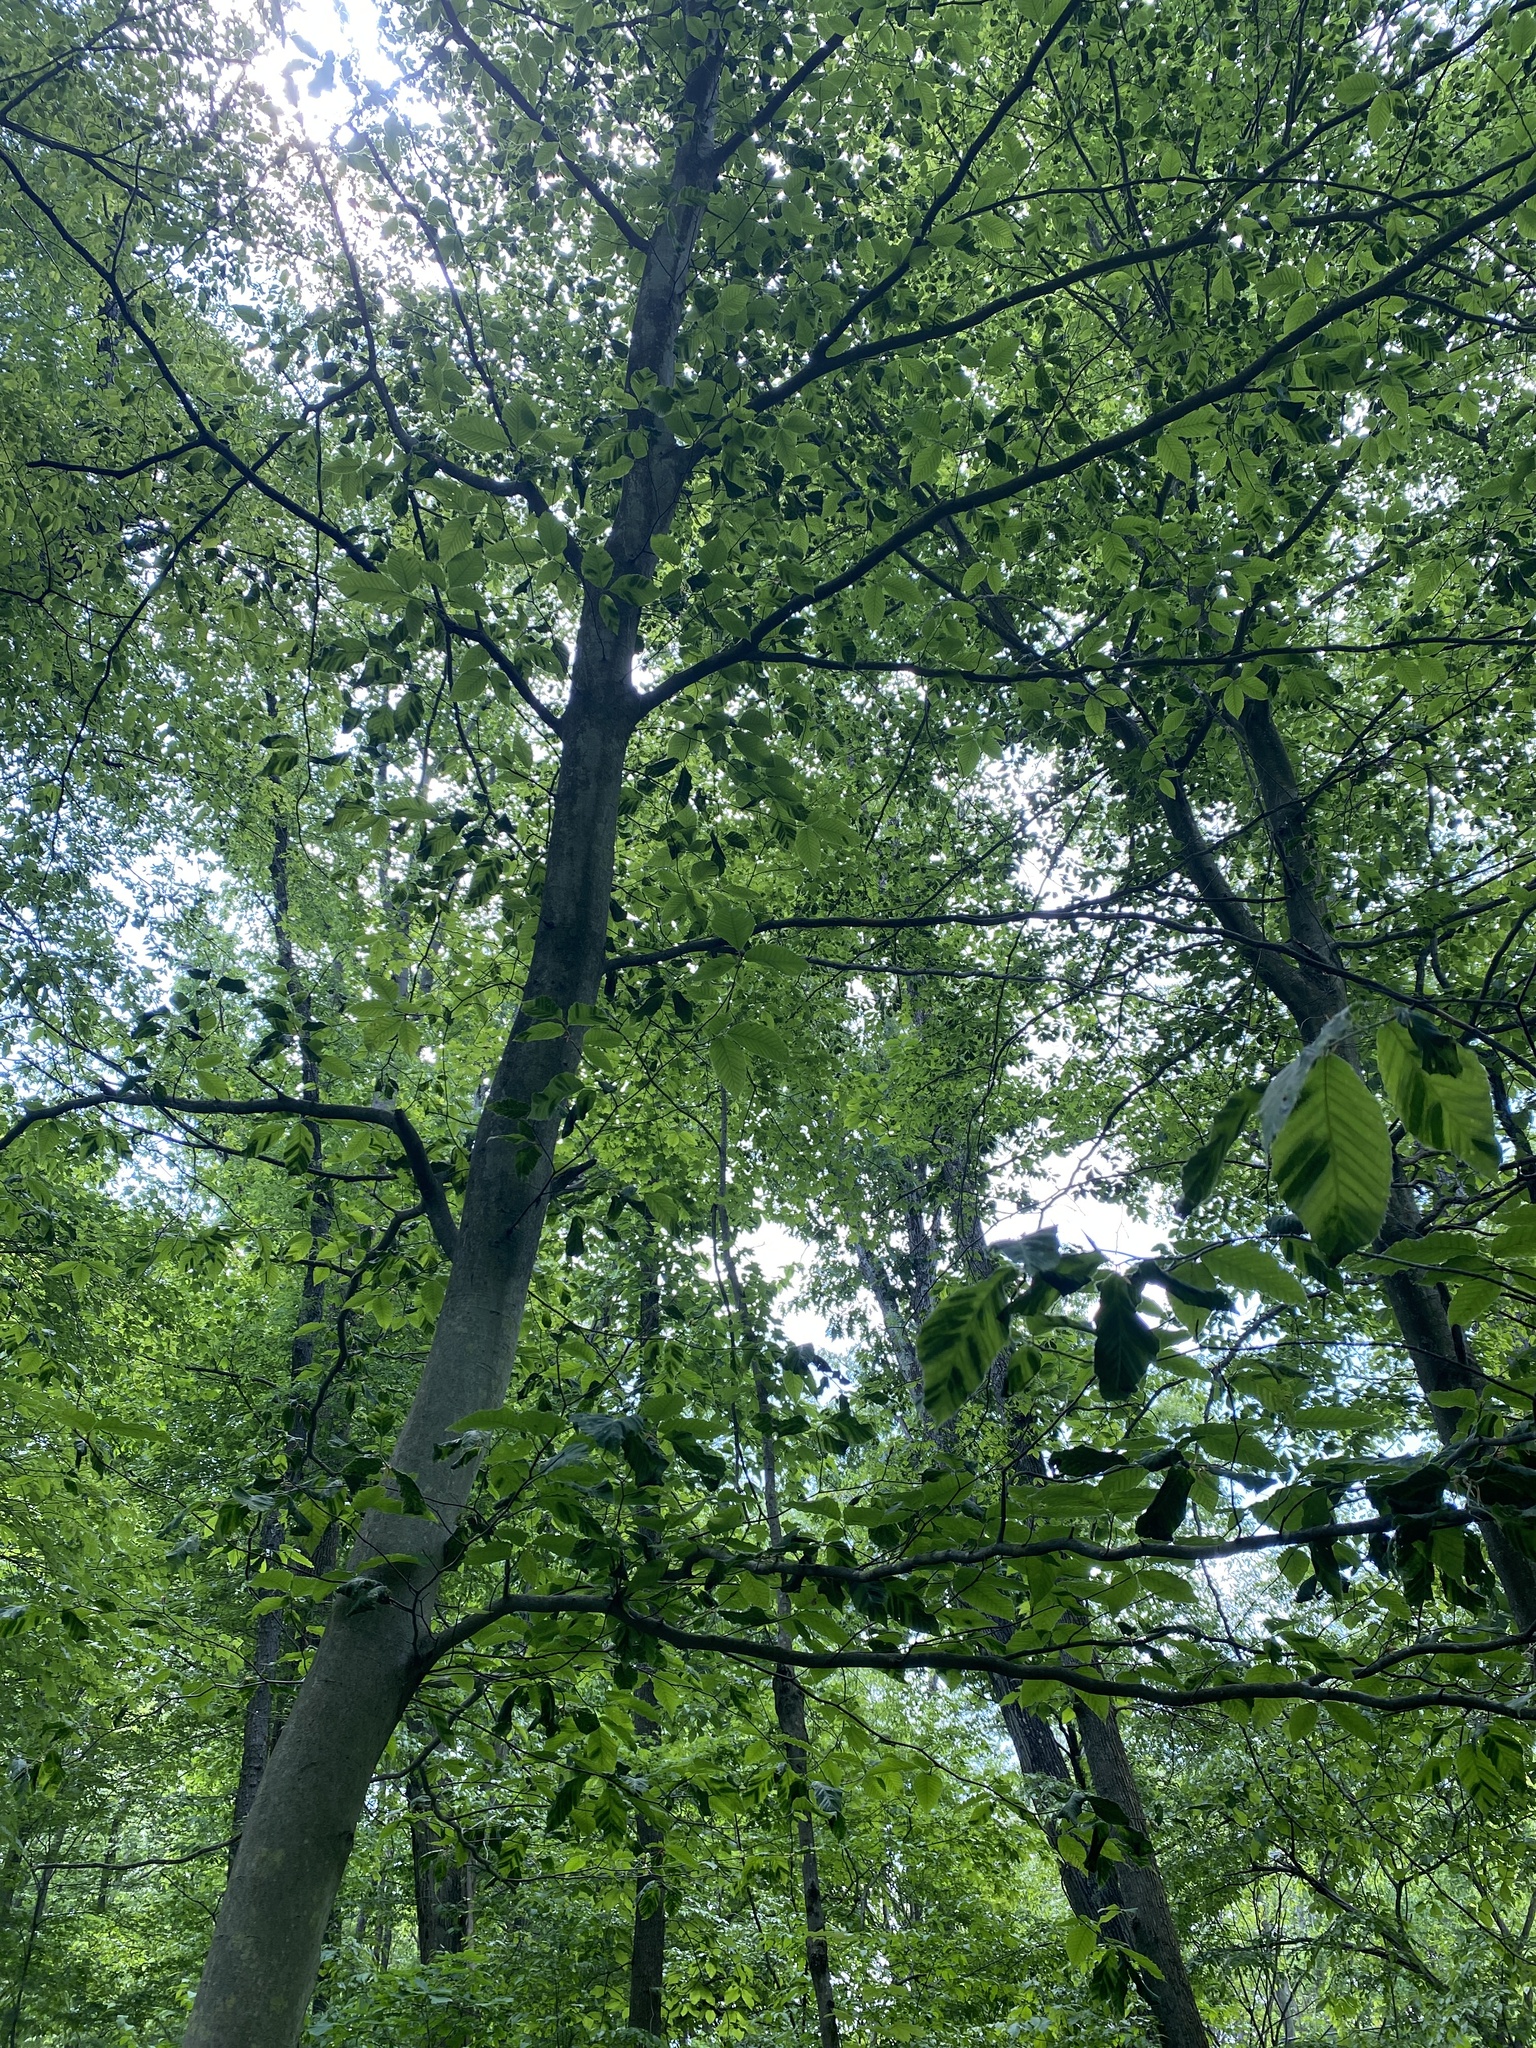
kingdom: Animalia
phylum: Nematoda
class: Chromadorea
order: Rhabditida
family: Anguinidae
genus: Litylenchus
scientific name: Litylenchus crenatae
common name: Beech leaf disease
